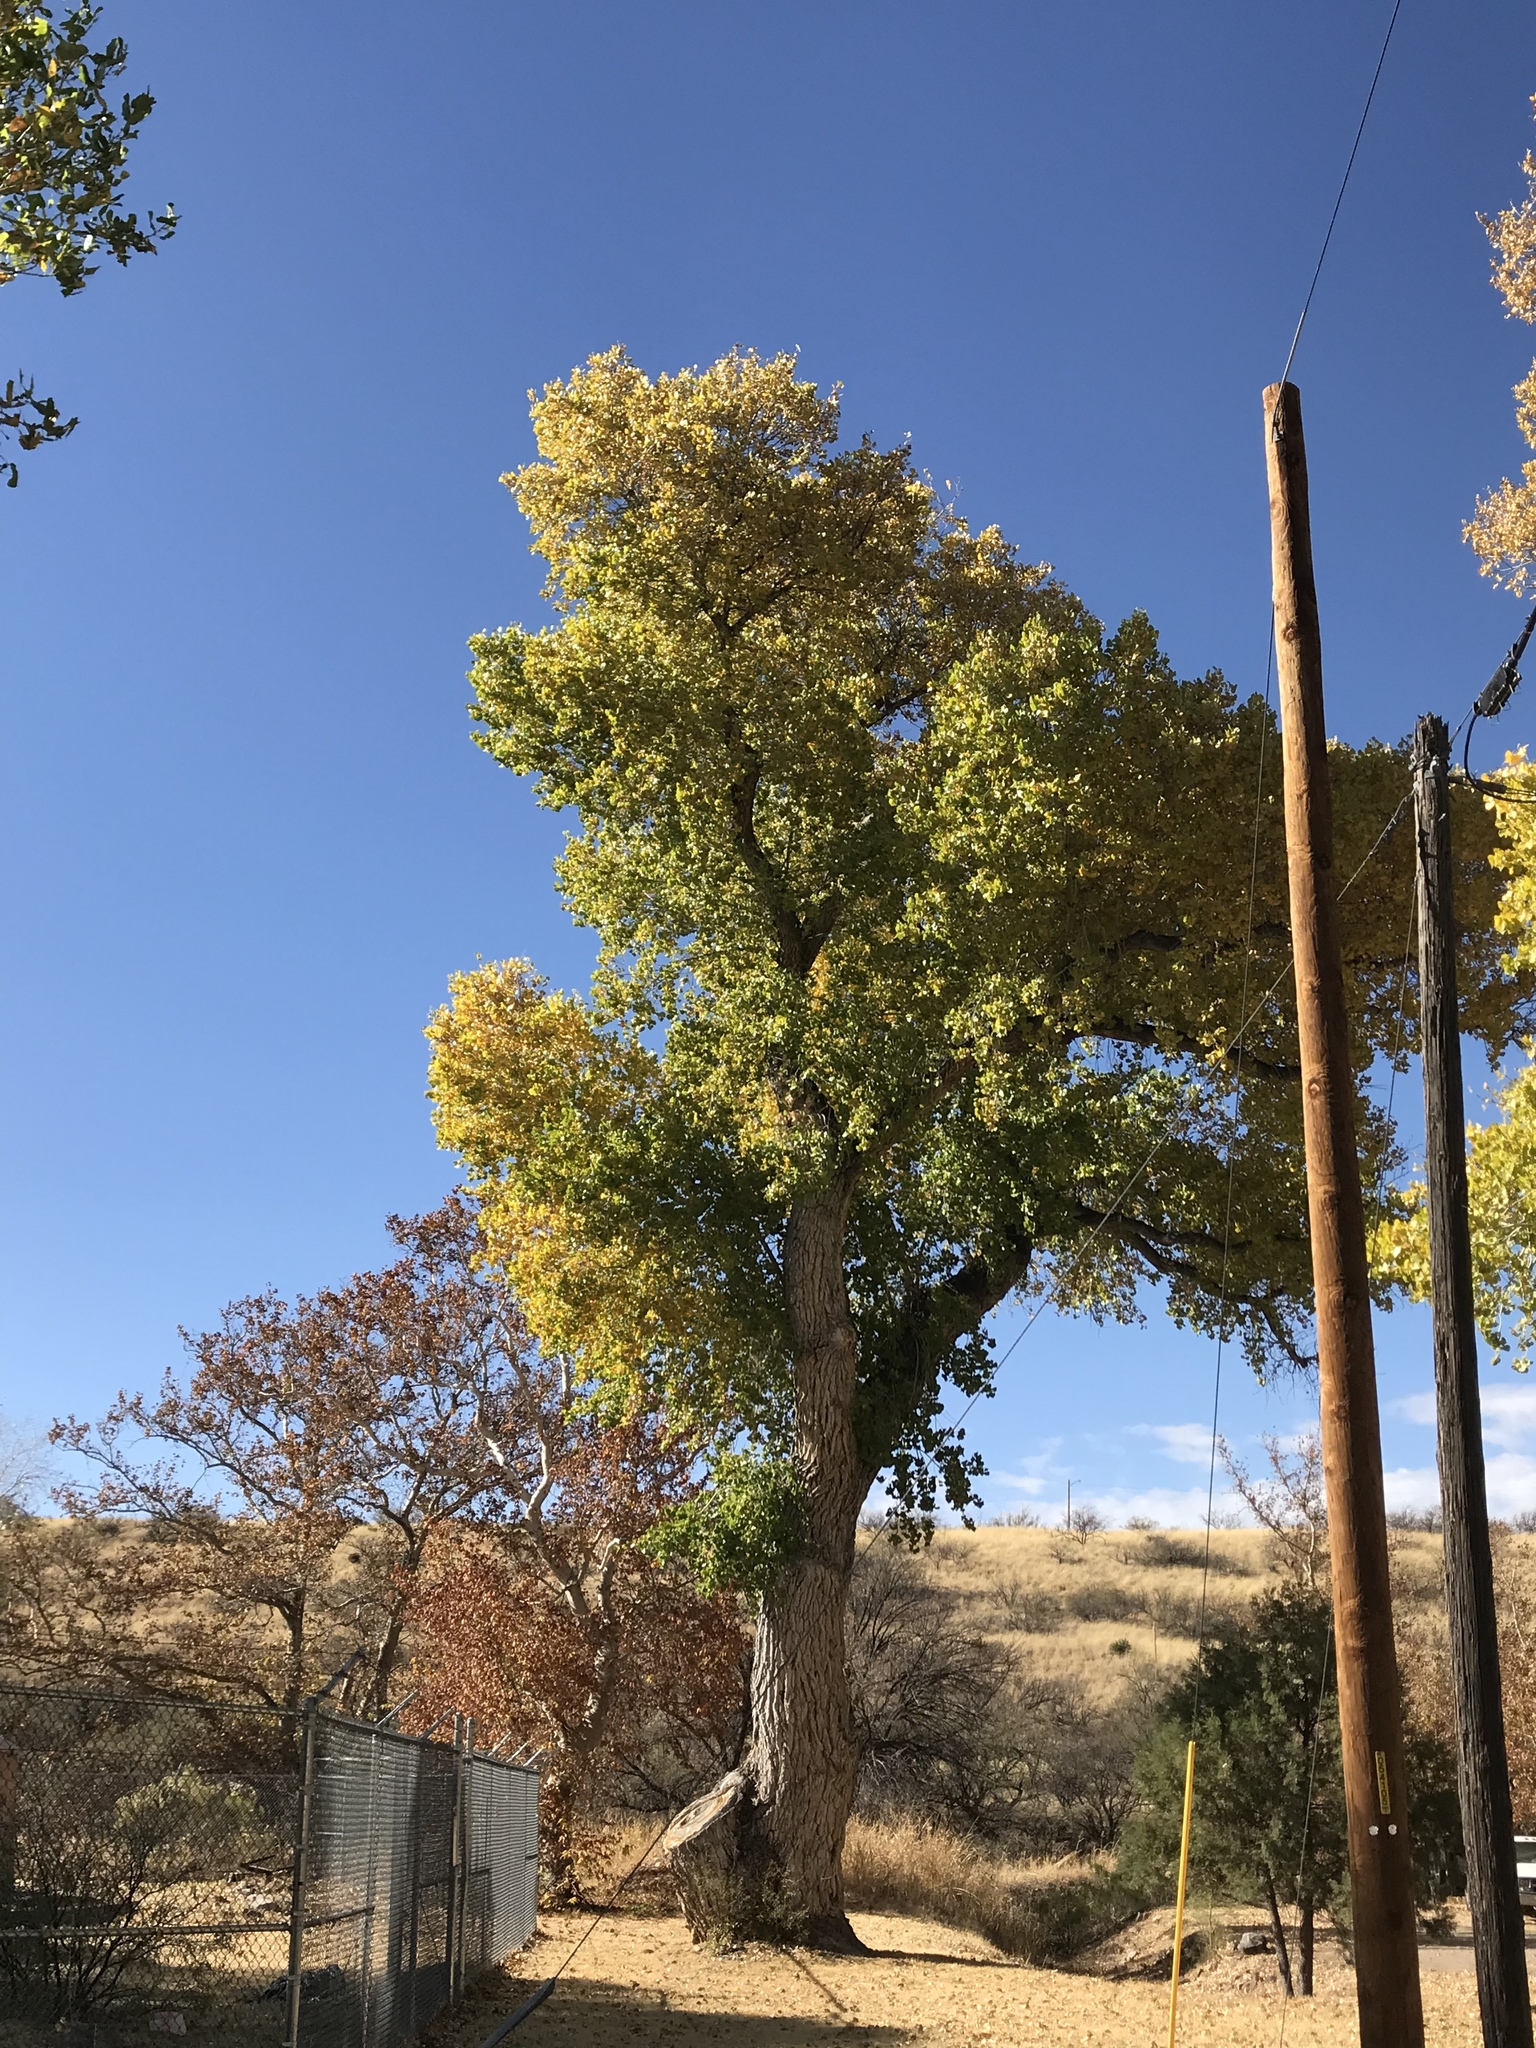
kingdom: Plantae
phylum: Tracheophyta
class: Magnoliopsida
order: Malpighiales
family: Salicaceae
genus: Populus
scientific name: Populus fremontii
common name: Fremont's cottonwood
